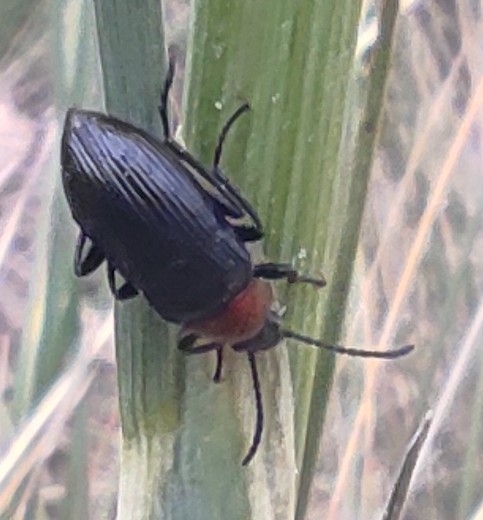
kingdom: Animalia
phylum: Arthropoda
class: Insecta
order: Coleoptera
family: Tenebrionidae
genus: Heliotaurus
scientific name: Heliotaurus ruficollis
